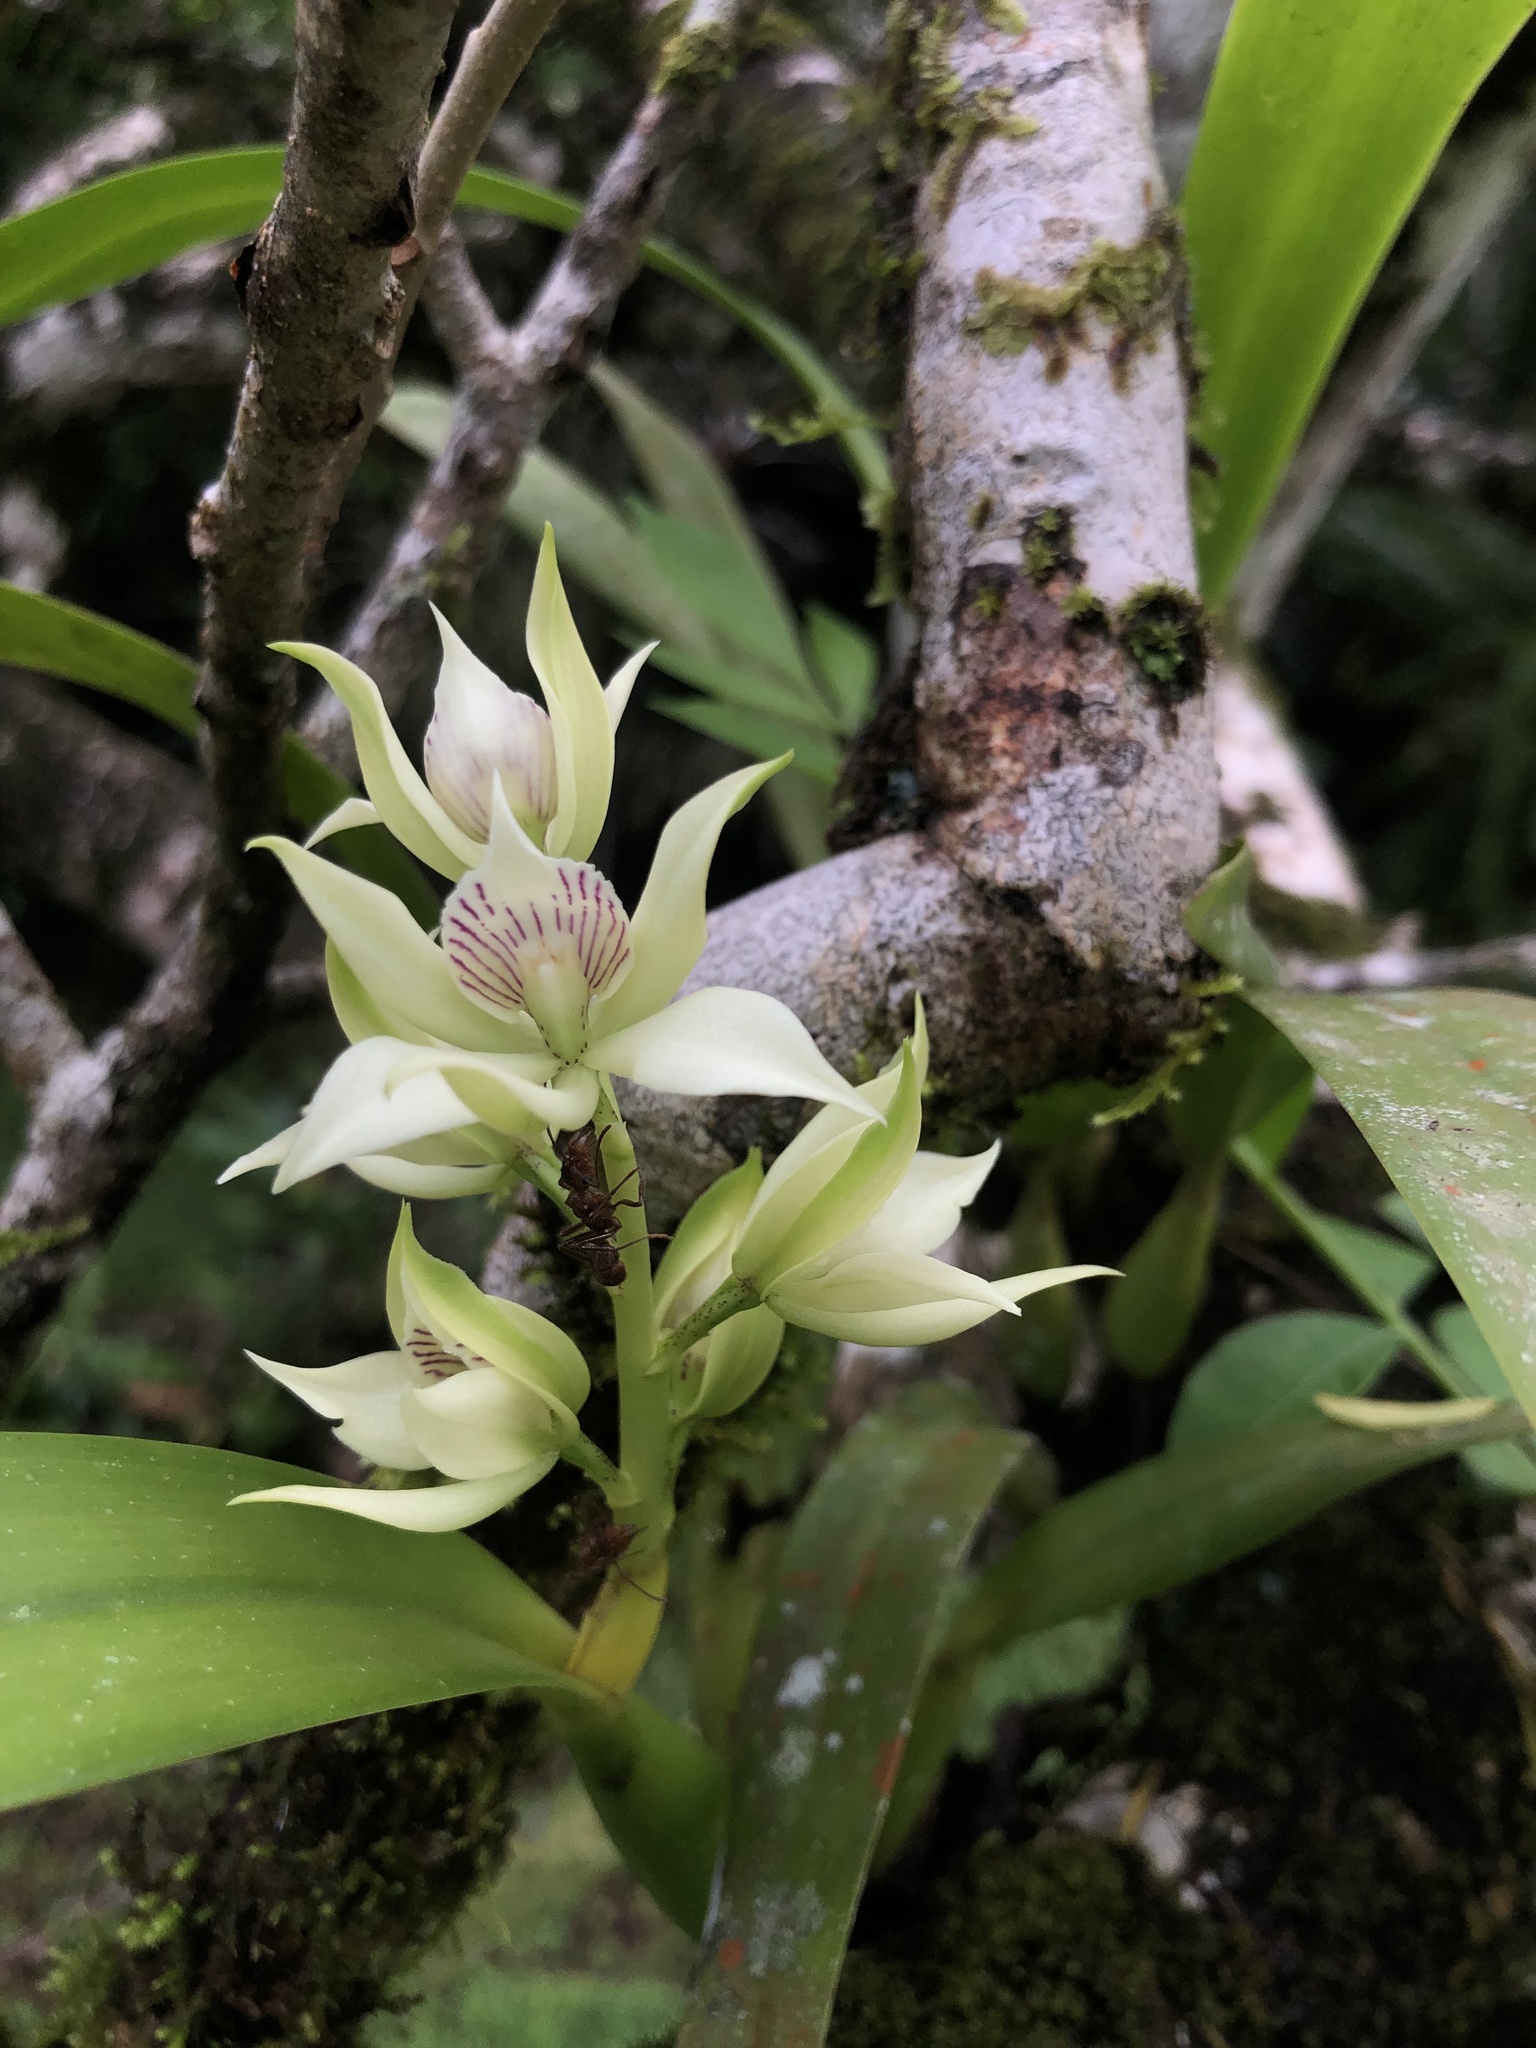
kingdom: Plantae
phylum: Tracheophyta
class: Liliopsida
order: Asparagales
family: Orchidaceae
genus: Prosthechea
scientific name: Prosthechea fragrans
